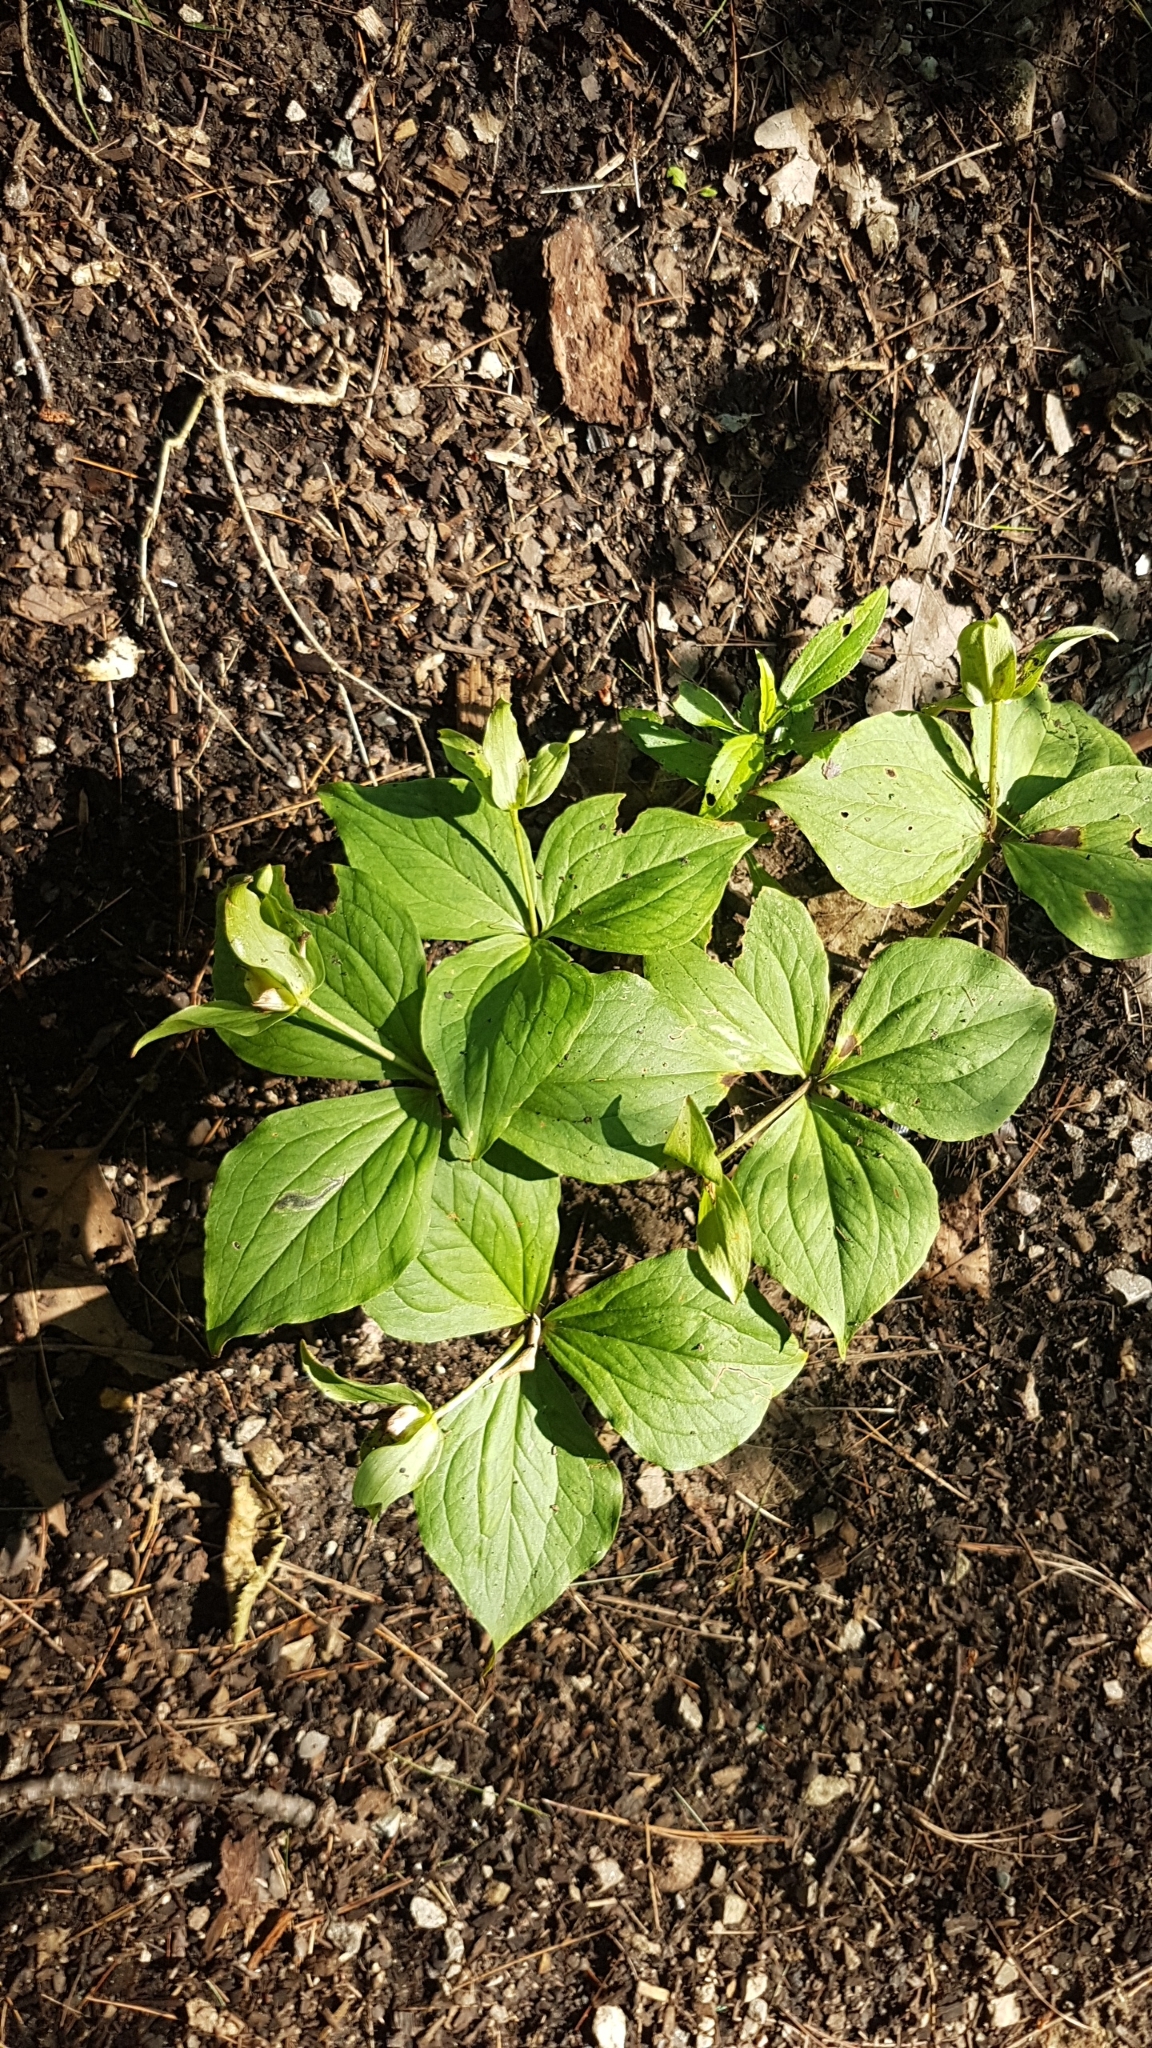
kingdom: Plantae
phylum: Tracheophyta
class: Liliopsida
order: Liliales
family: Melanthiaceae
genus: Trillium
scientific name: Trillium grandiflorum
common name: Great white trillium
